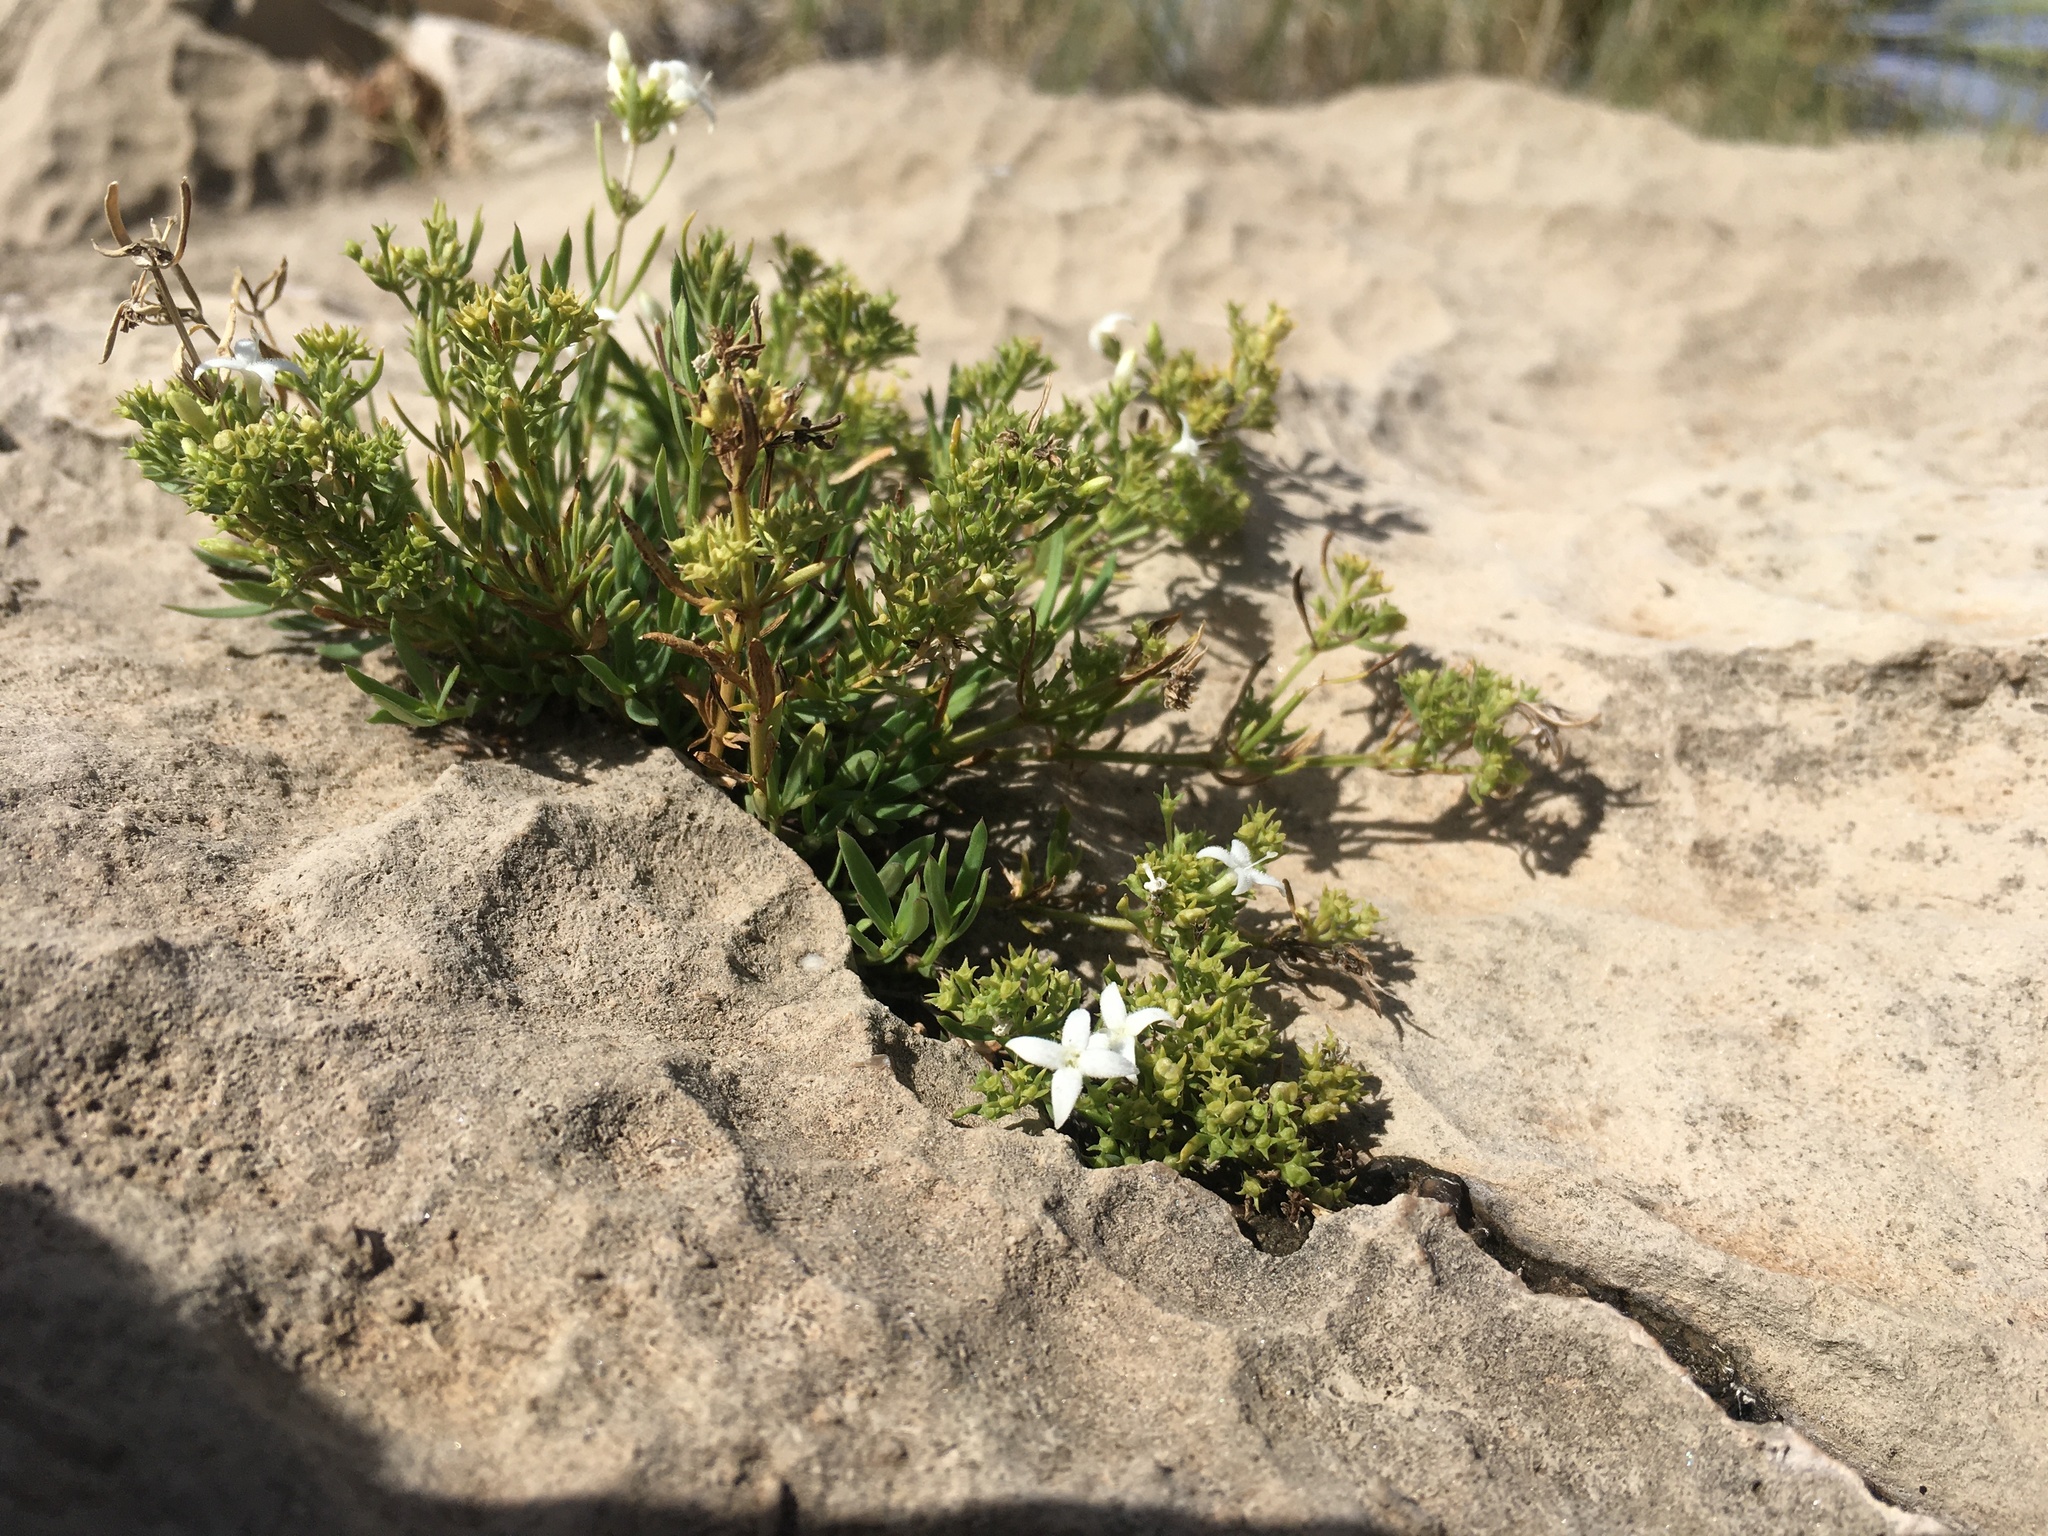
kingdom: Plantae
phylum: Tracheophyta
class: Magnoliopsida
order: Gentianales
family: Rubiaceae
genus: Stenaria
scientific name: Stenaria nigricans
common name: Diamondflowers
